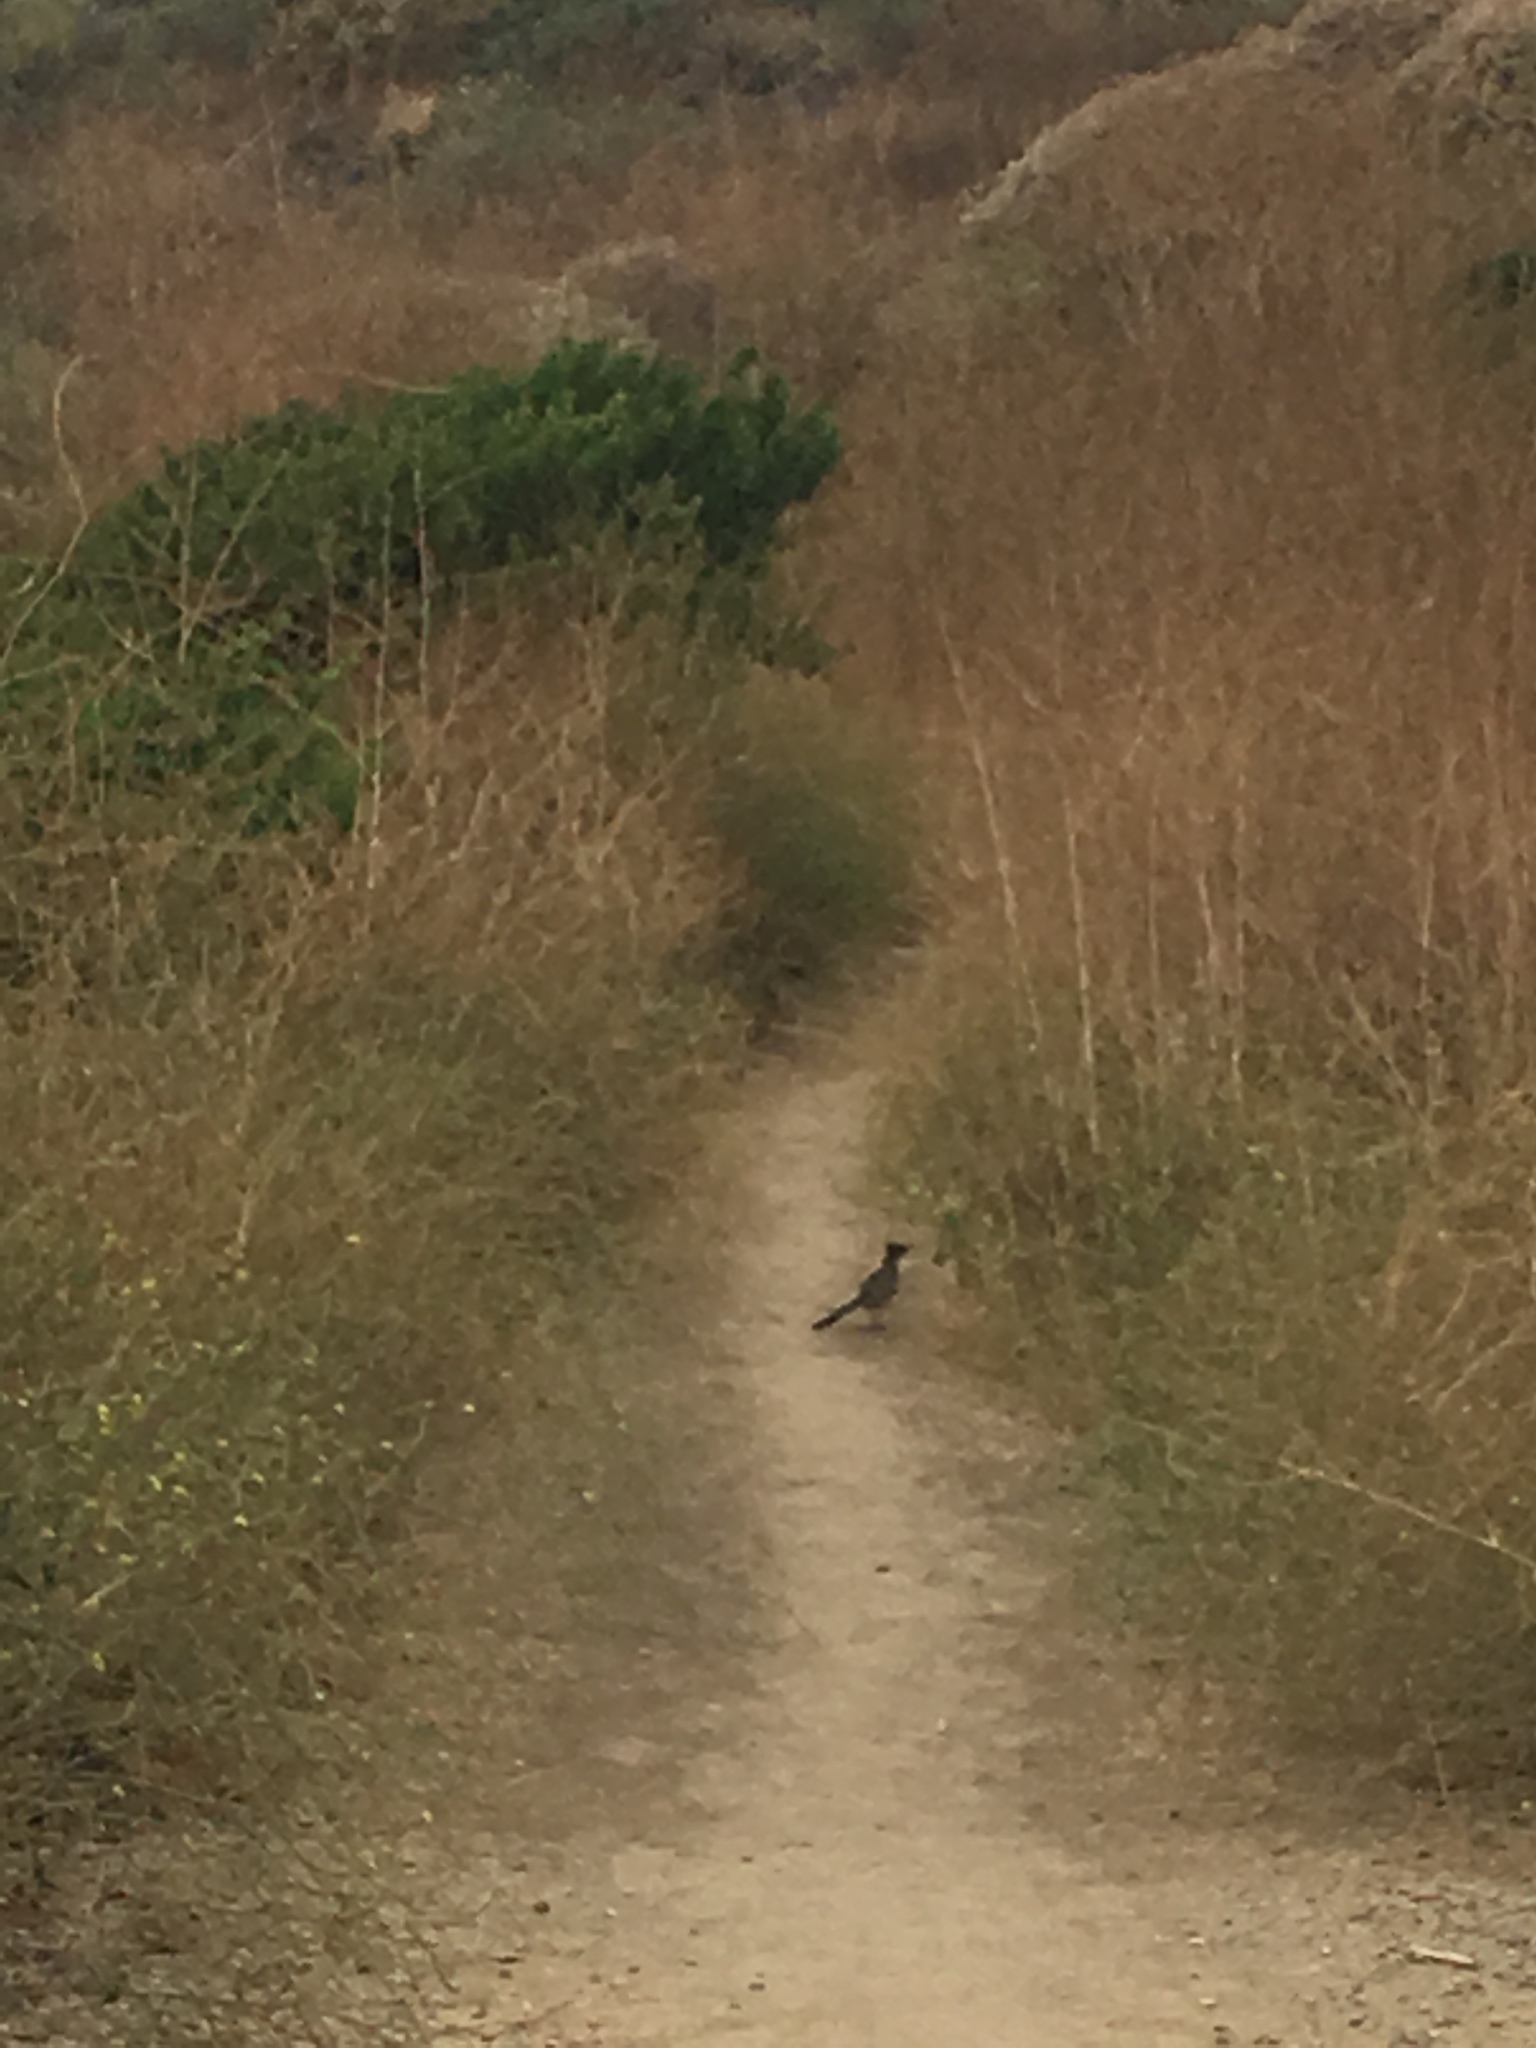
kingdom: Animalia
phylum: Chordata
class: Aves
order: Cuculiformes
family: Cuculidae
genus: Geococcyx
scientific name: Geococcyx californianus
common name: Greater roadrunner
